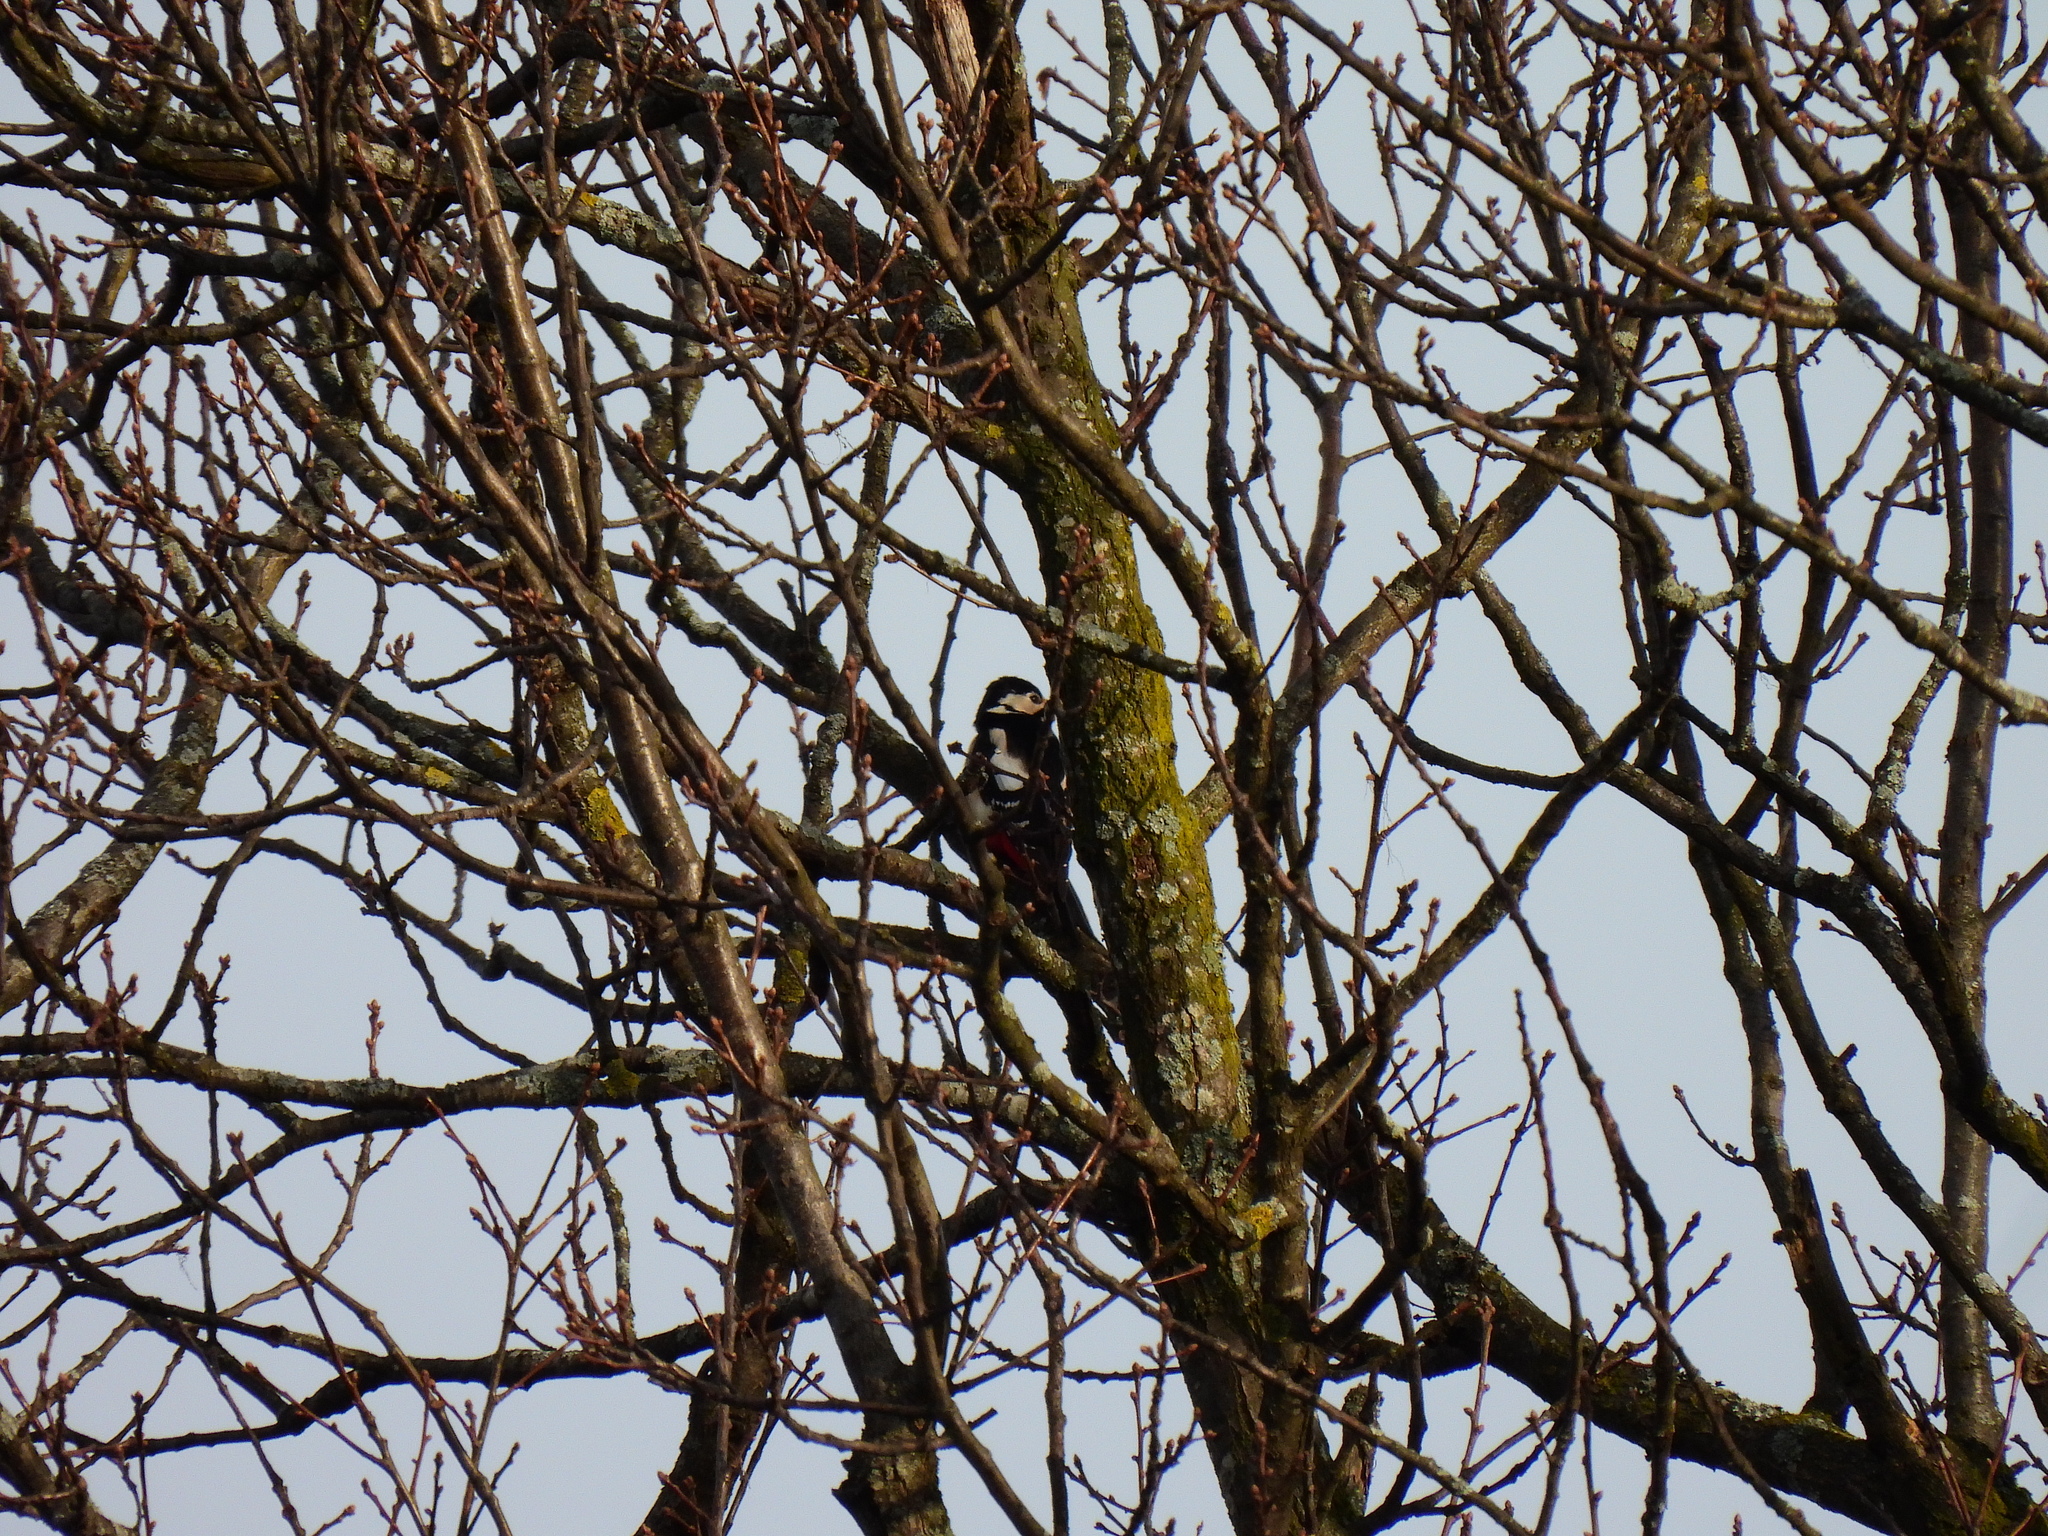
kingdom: Animalia
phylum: Chordata
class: Aves
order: Piciformes
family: Picidae
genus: Dendrocopos
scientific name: Dendrocopos major
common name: Great spotted woodpecker
